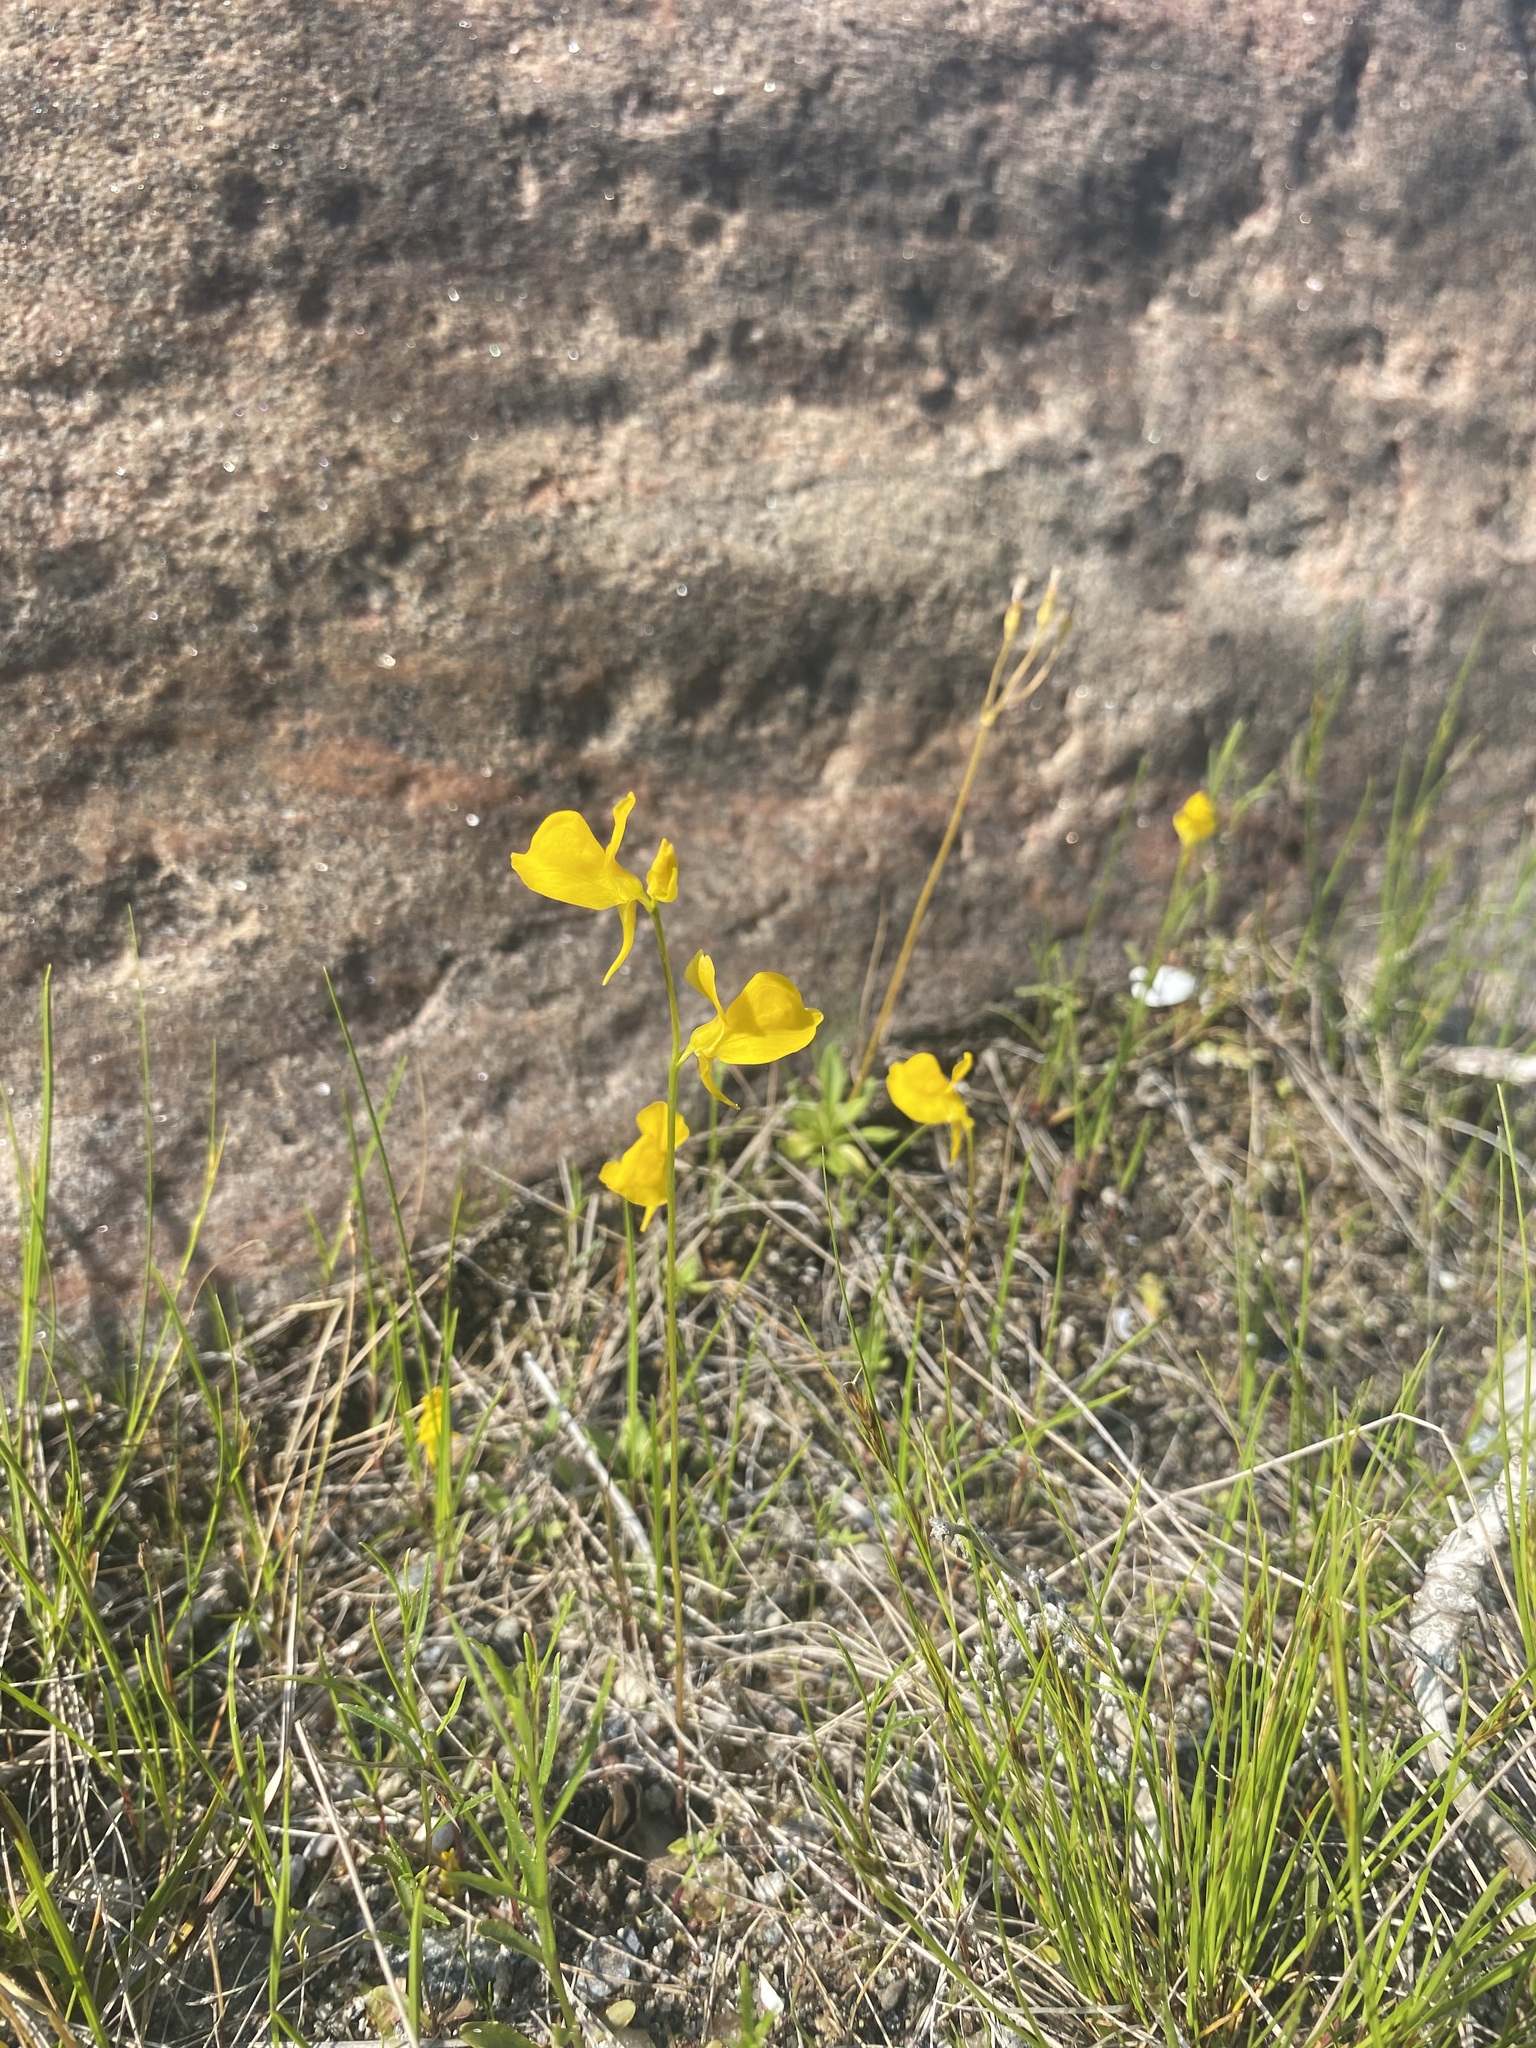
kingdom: Plantae
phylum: Tracheophyta
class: Magnoliopsida
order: Lamiales
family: Lentibulariaceae
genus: Utricularia
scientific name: Utricularia cornuta
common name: Horned bladderwort
